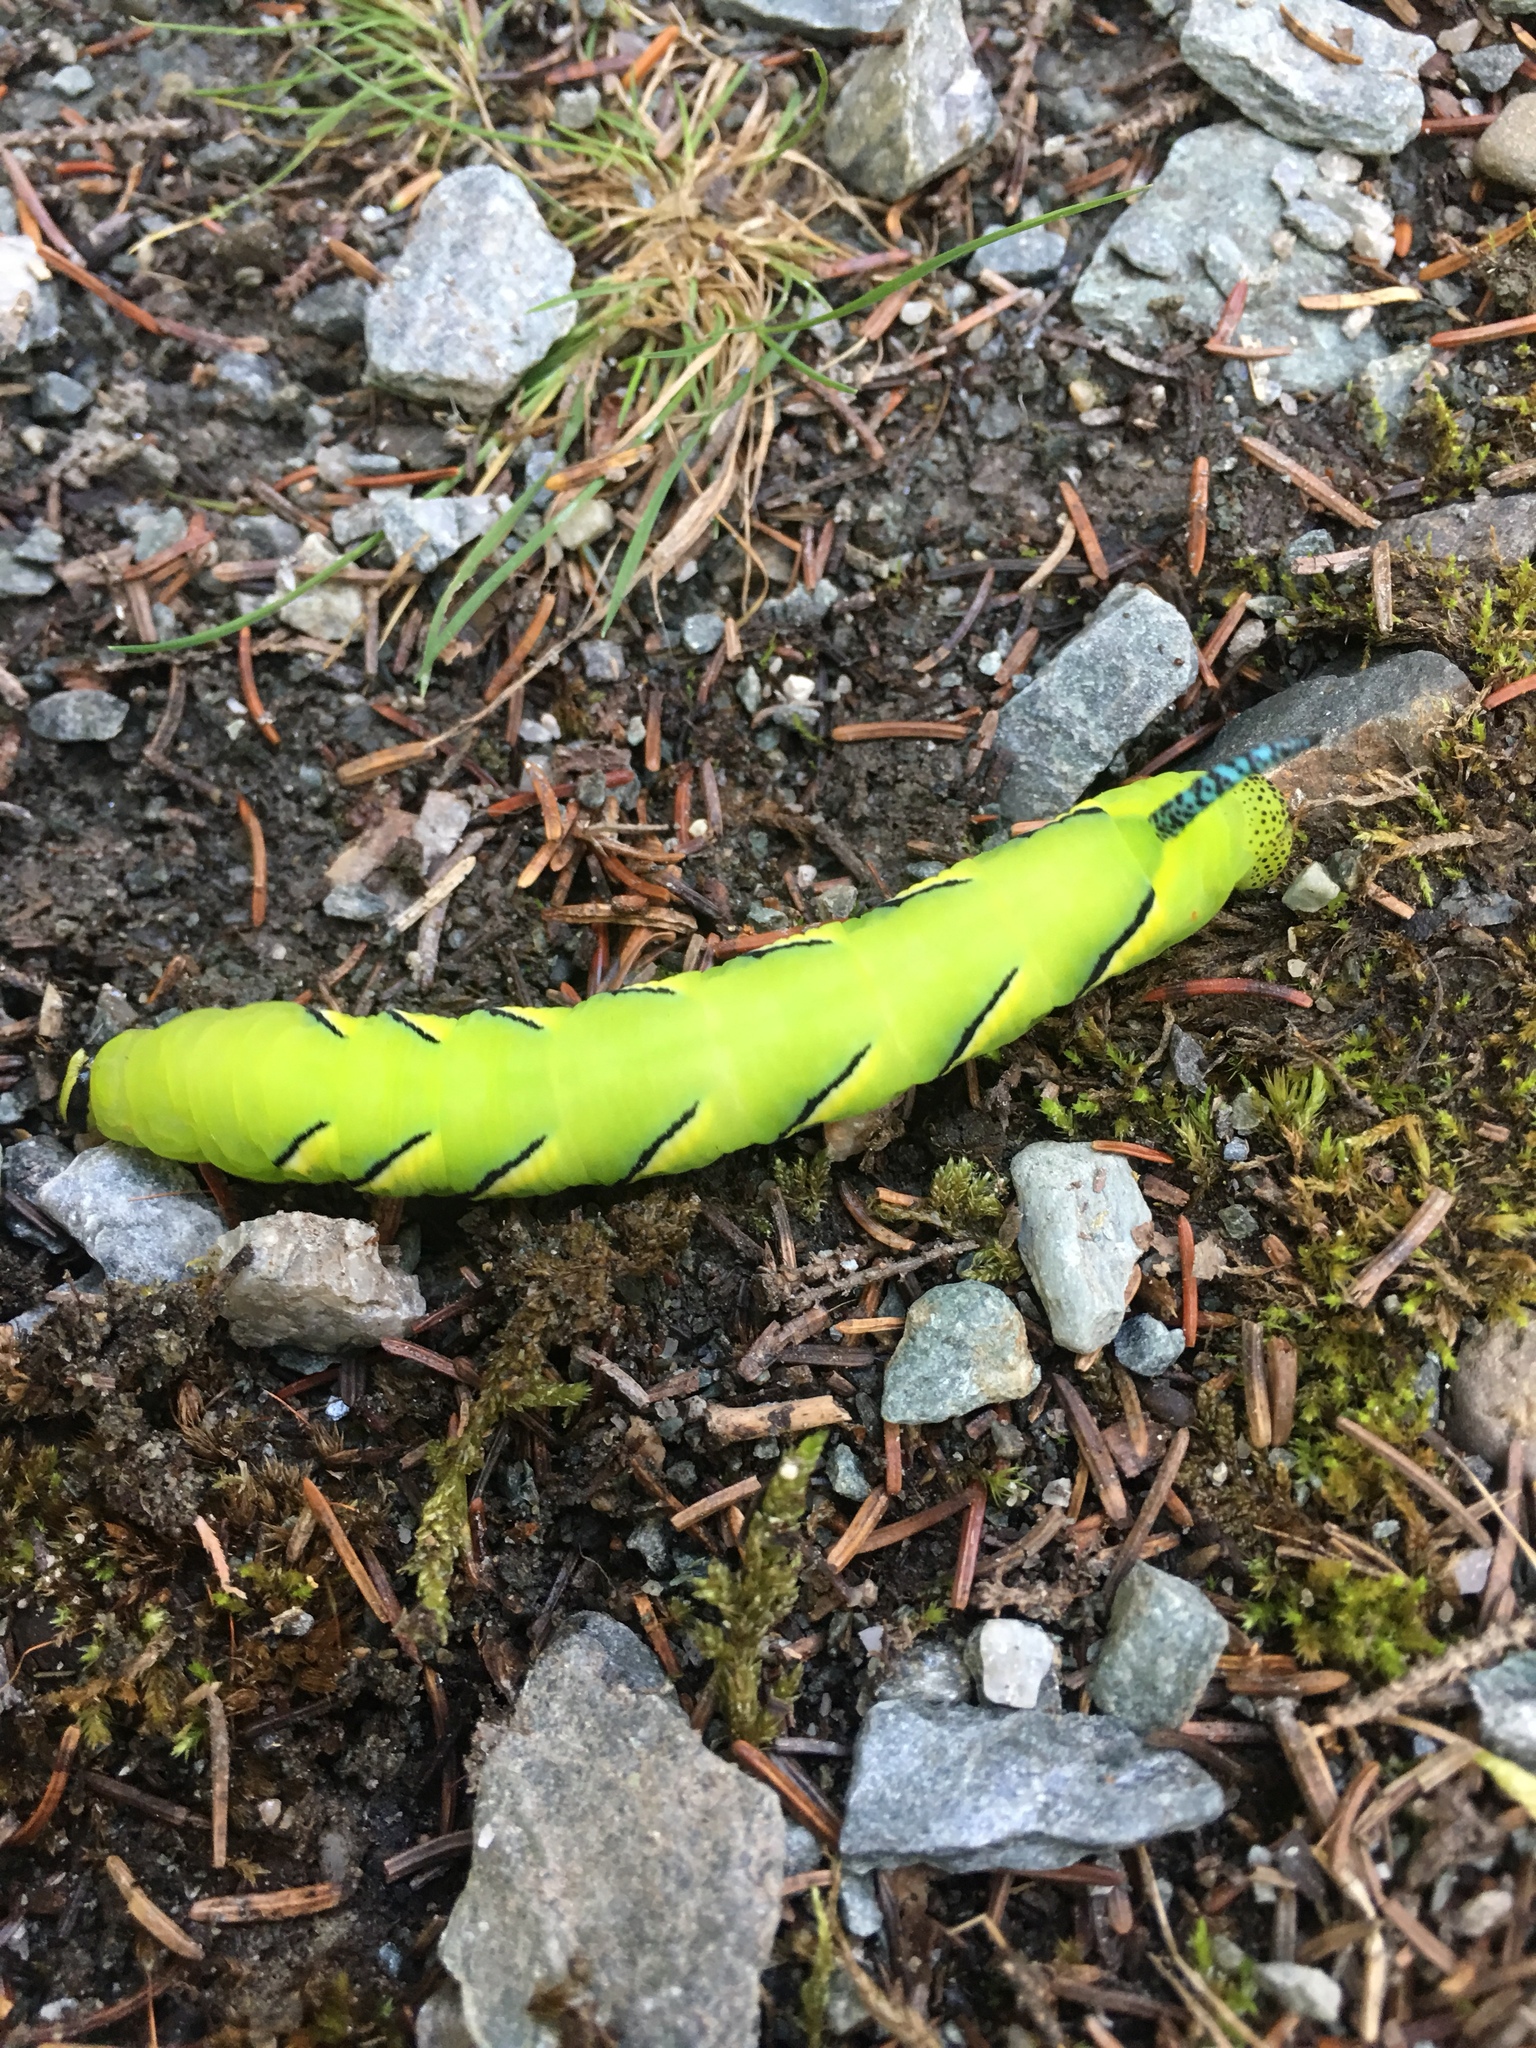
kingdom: Animalia
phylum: Arthropoda
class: Insecta
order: Lepidoptera
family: Sphingidae
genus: Sphinx
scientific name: Sphinx kalmiae
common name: Laurel sphinx
